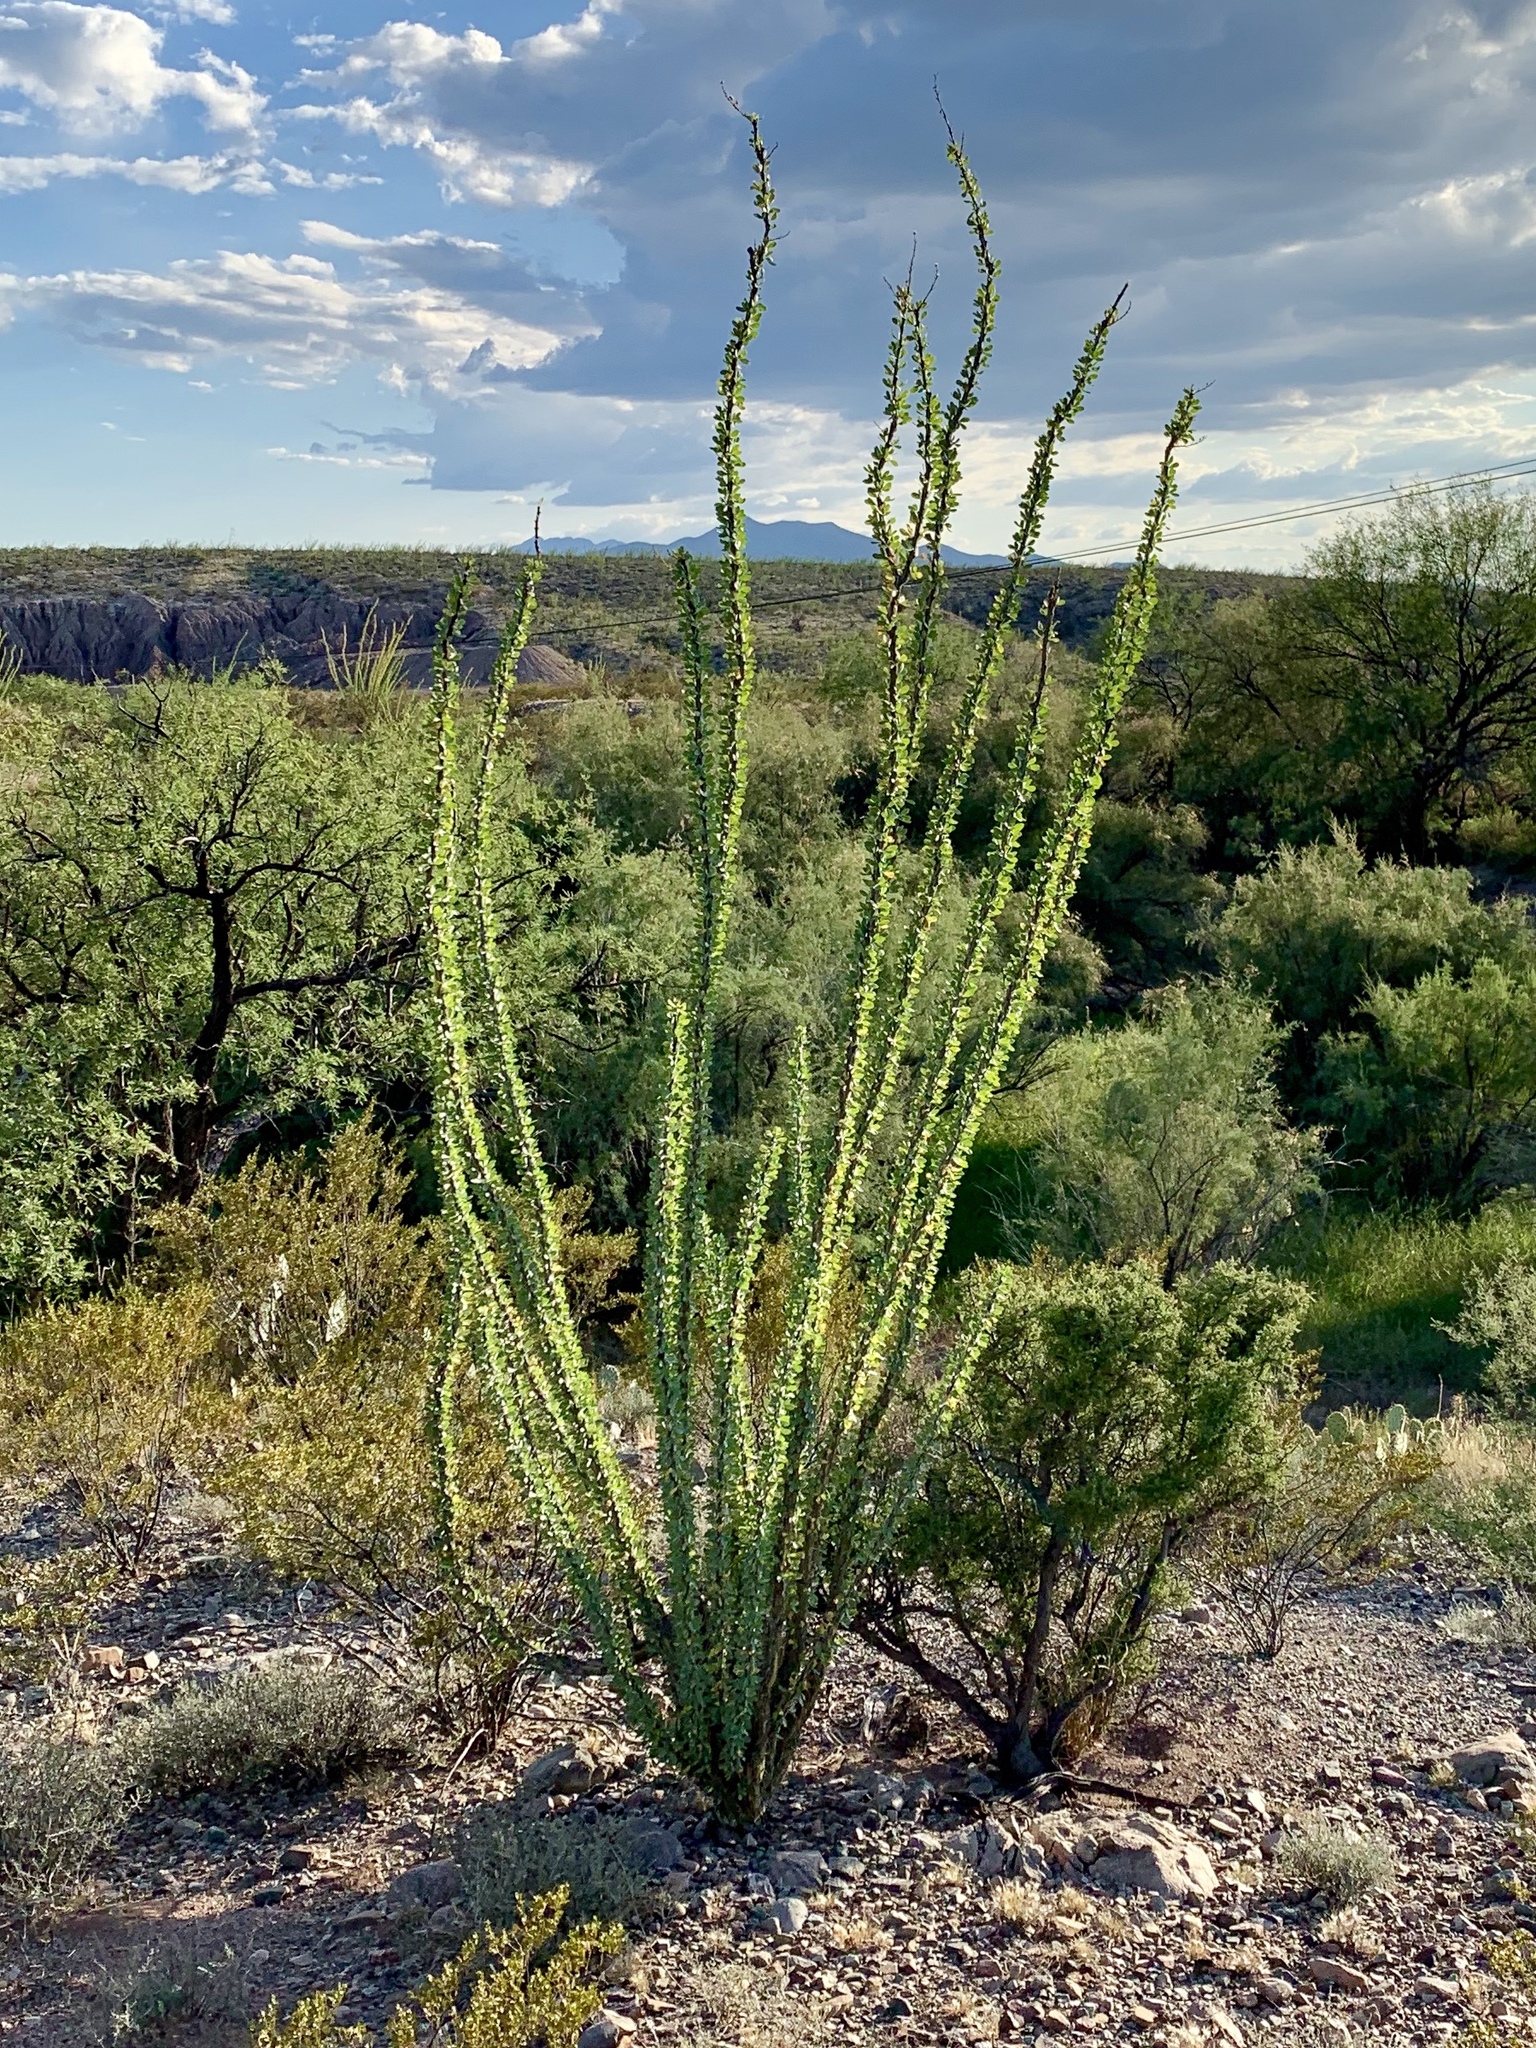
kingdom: Plantae
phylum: Tracheophyta
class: Magnoliopsida
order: Ericales
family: Fouquieriaceae
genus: Fouquieria
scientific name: Fouquieria splendens
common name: Vine-cactus
